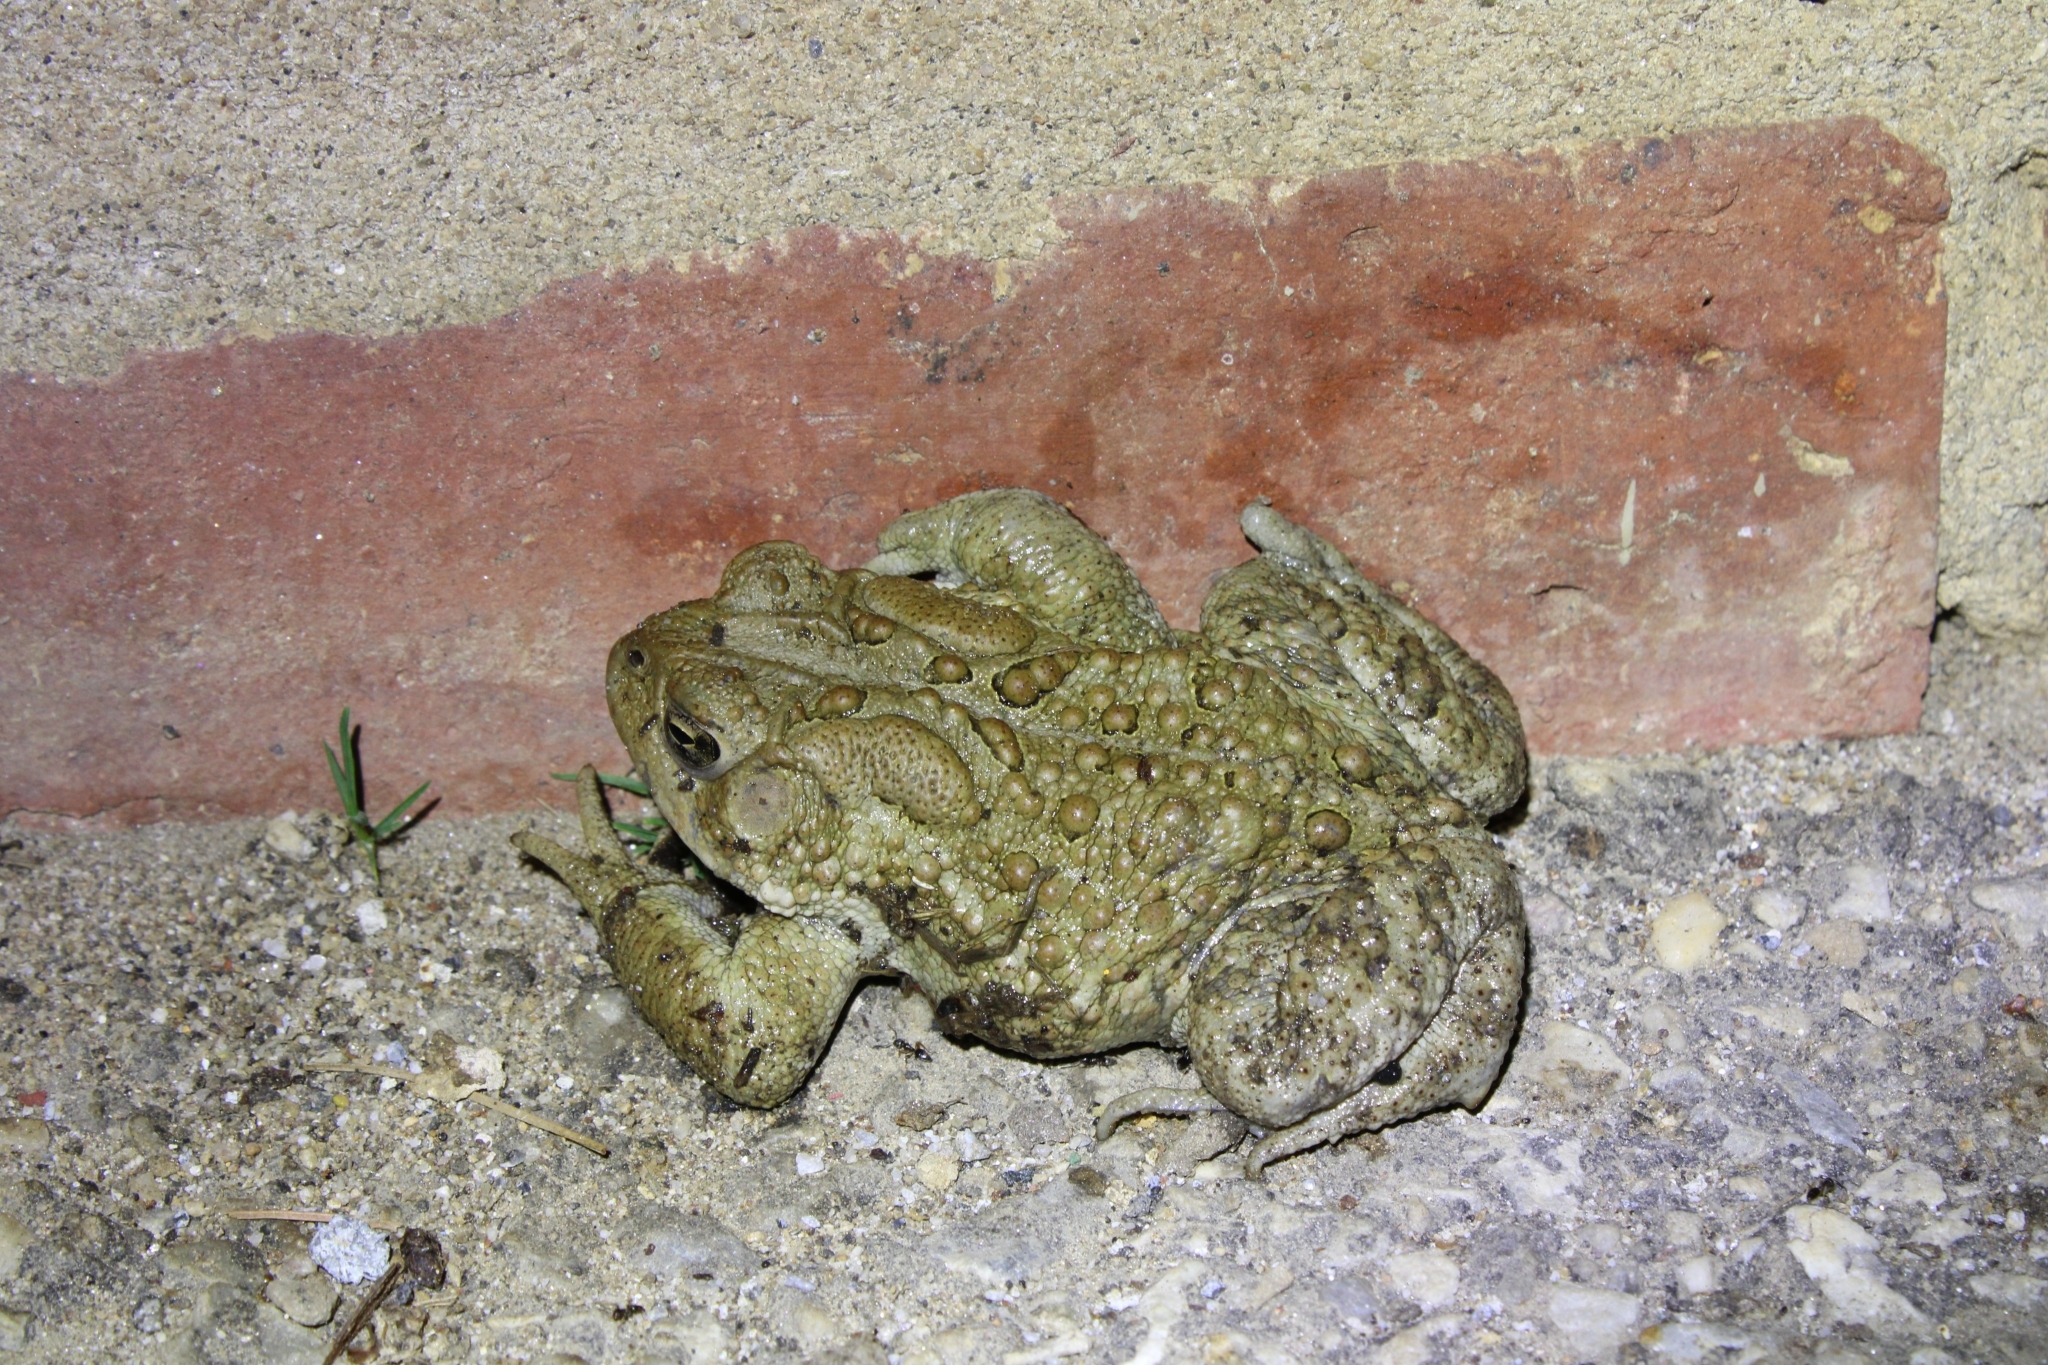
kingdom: Animalia
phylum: Chordata
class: Amphibia
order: Anura
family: Bufonidae
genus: Anaxyrus
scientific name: Anaxyrus americanus
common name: American toad
